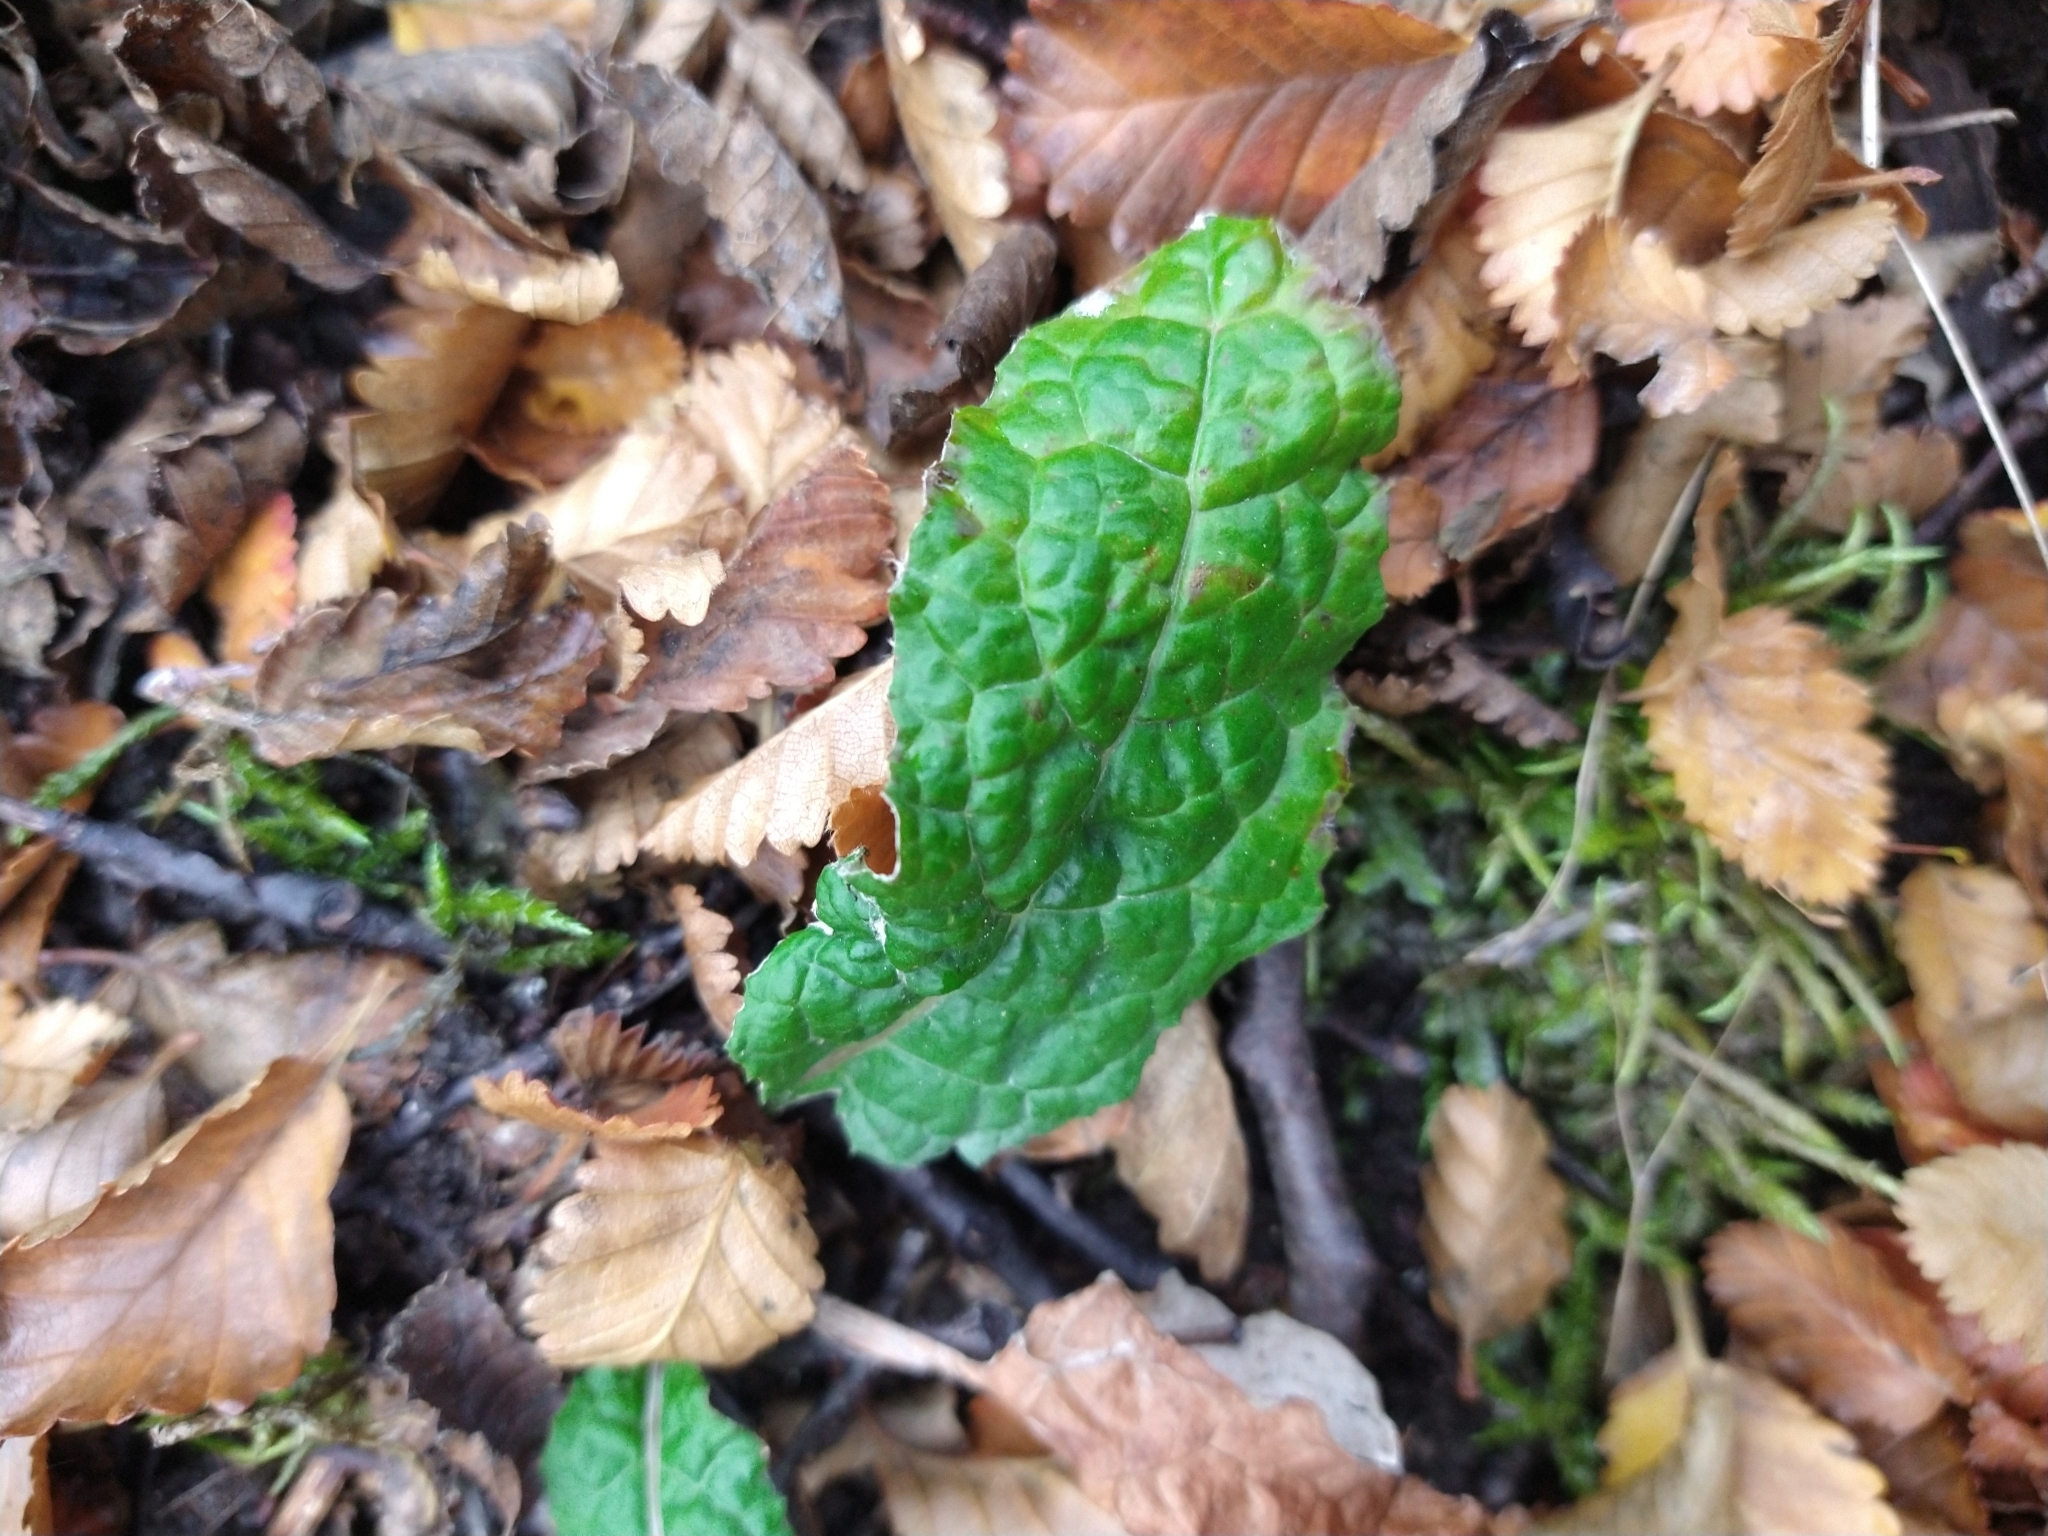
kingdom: Plantae
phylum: Tracheophyta
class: Magnoliopsida
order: Asterales
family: Asteraceae
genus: Adenocaulon
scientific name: Adenocaulon chilense
